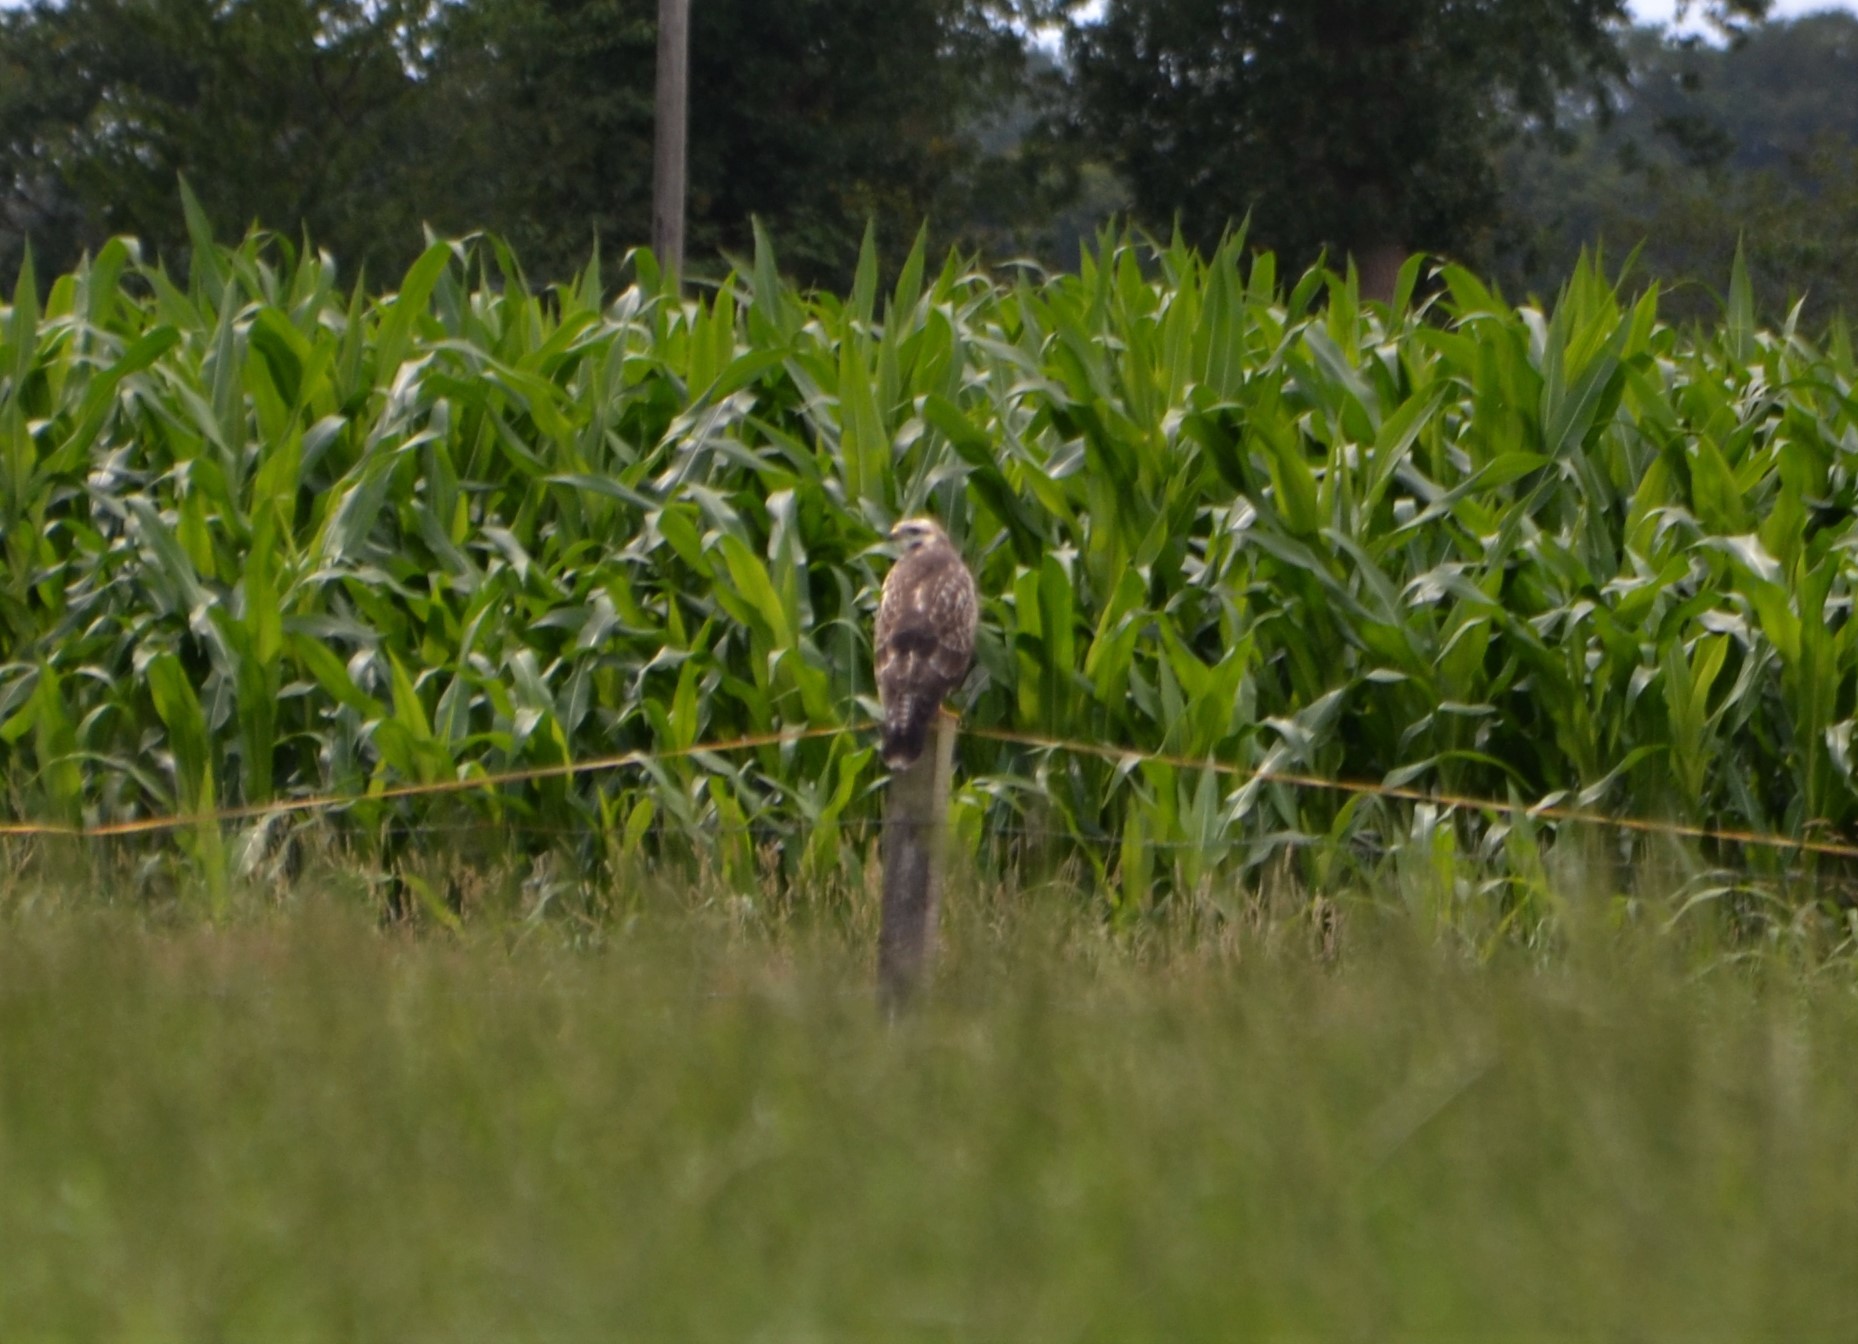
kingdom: Animalia
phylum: Chordata
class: Aves
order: Accipitriformes
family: Accipitridae
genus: Buteo
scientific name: Buteo buteo
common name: Common buzzard
